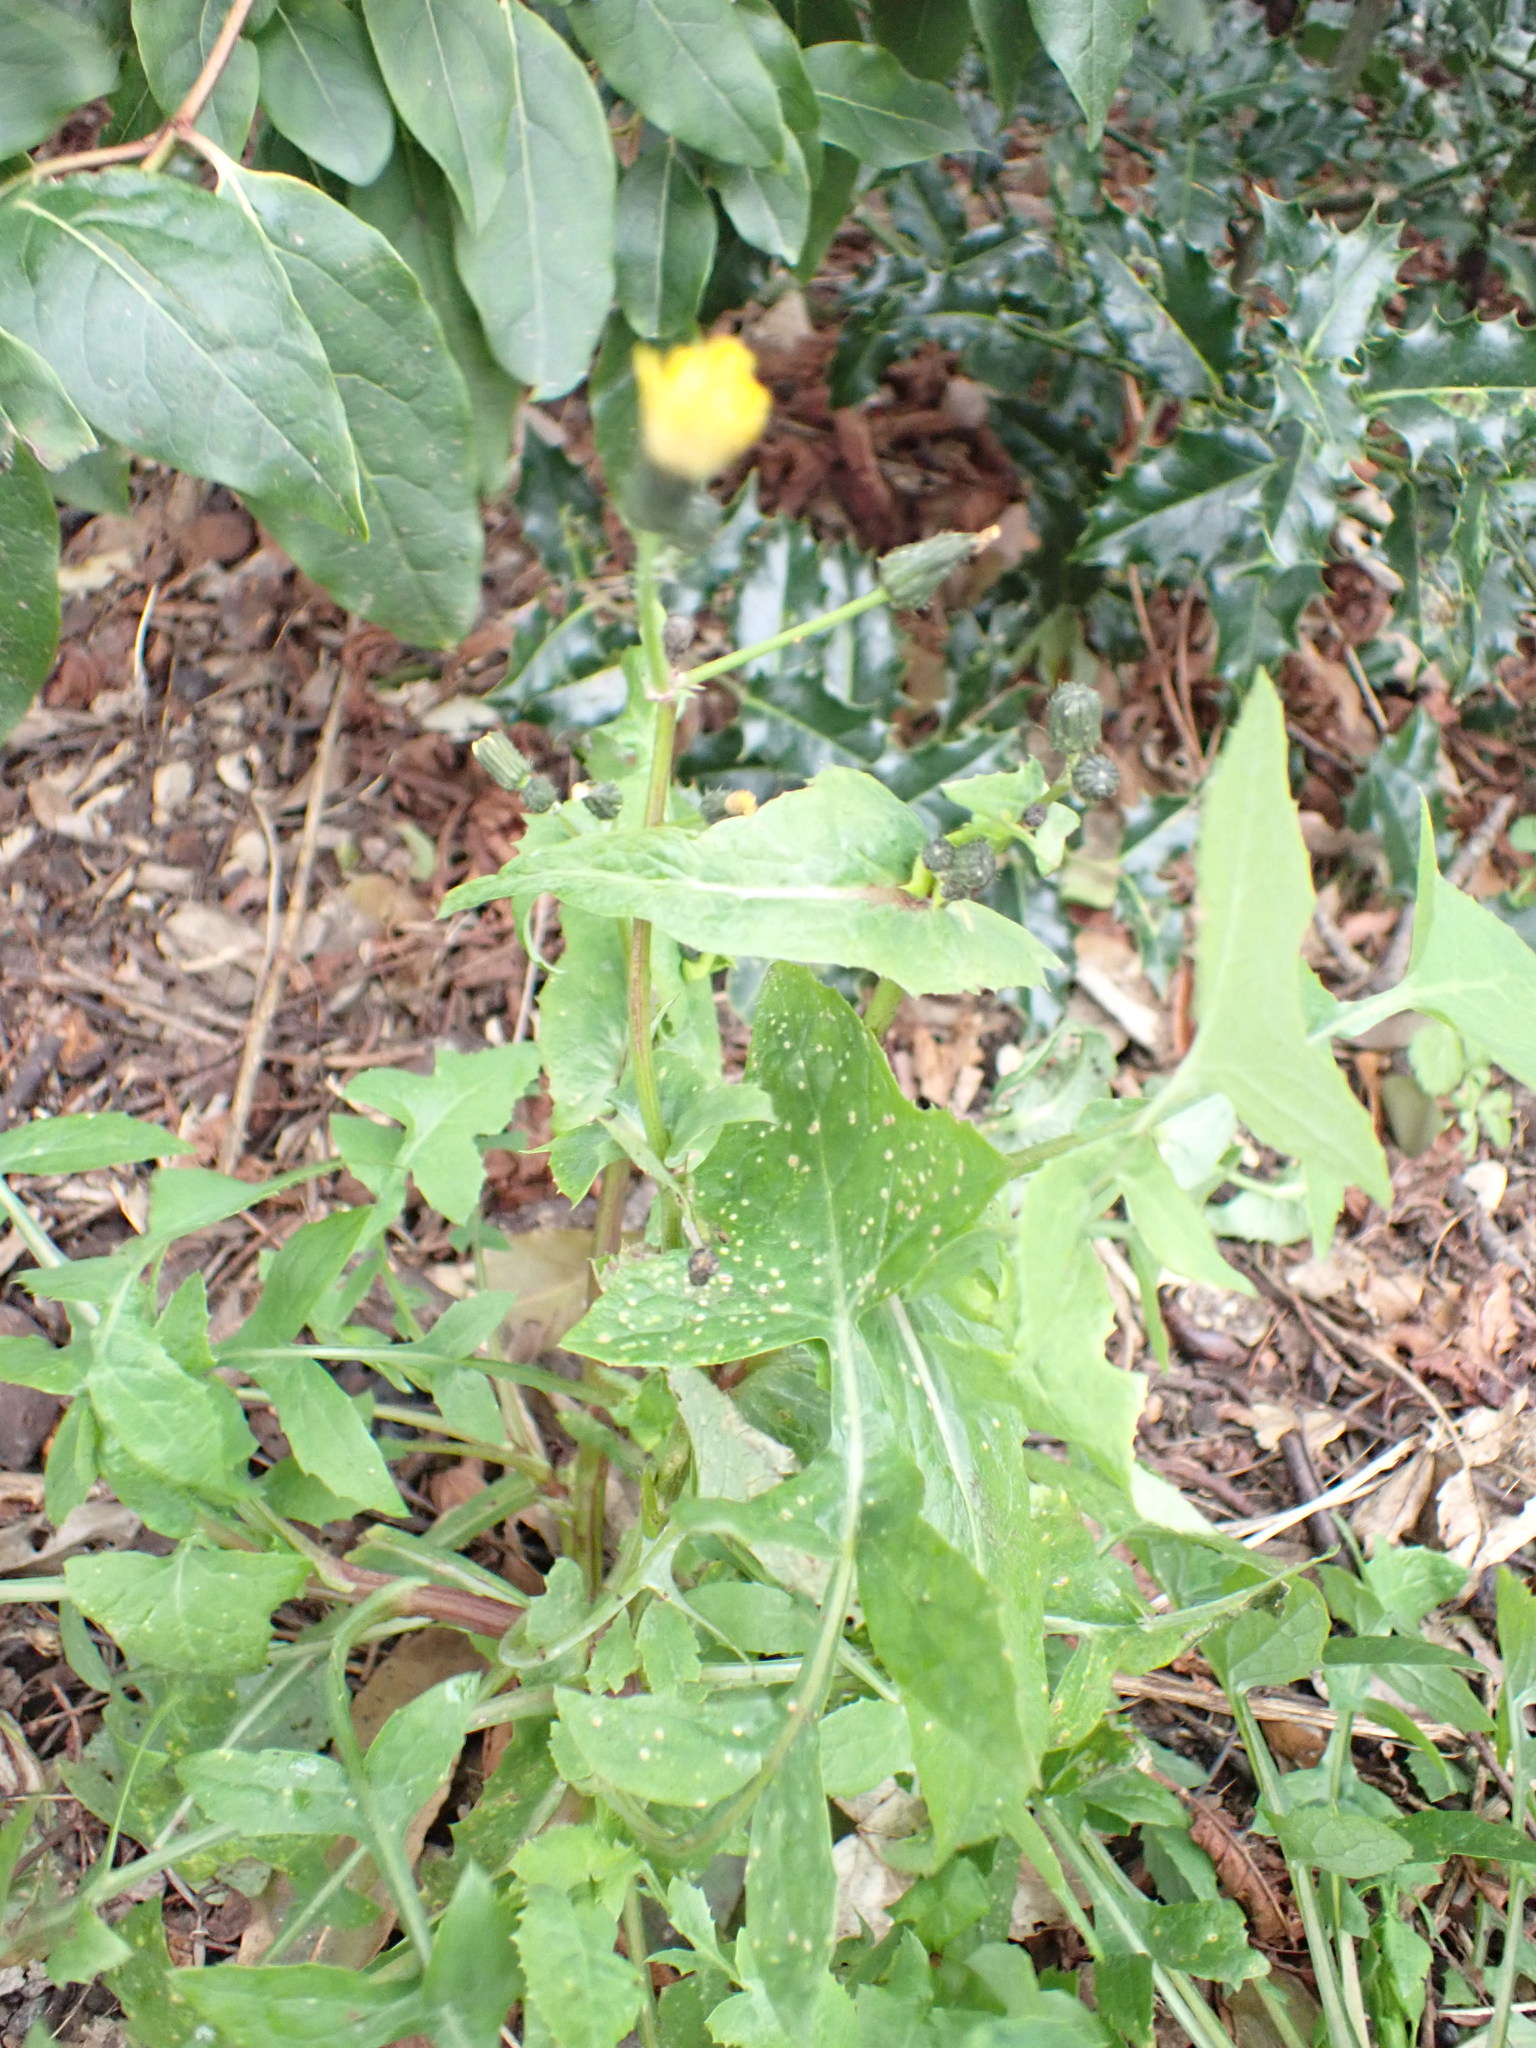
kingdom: Plantae
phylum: Tracheophyta
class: Magnoliopsida
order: Asterales
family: Asteraceae
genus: Sonchus
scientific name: Sonchus oleraceus
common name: Common sowthistle
